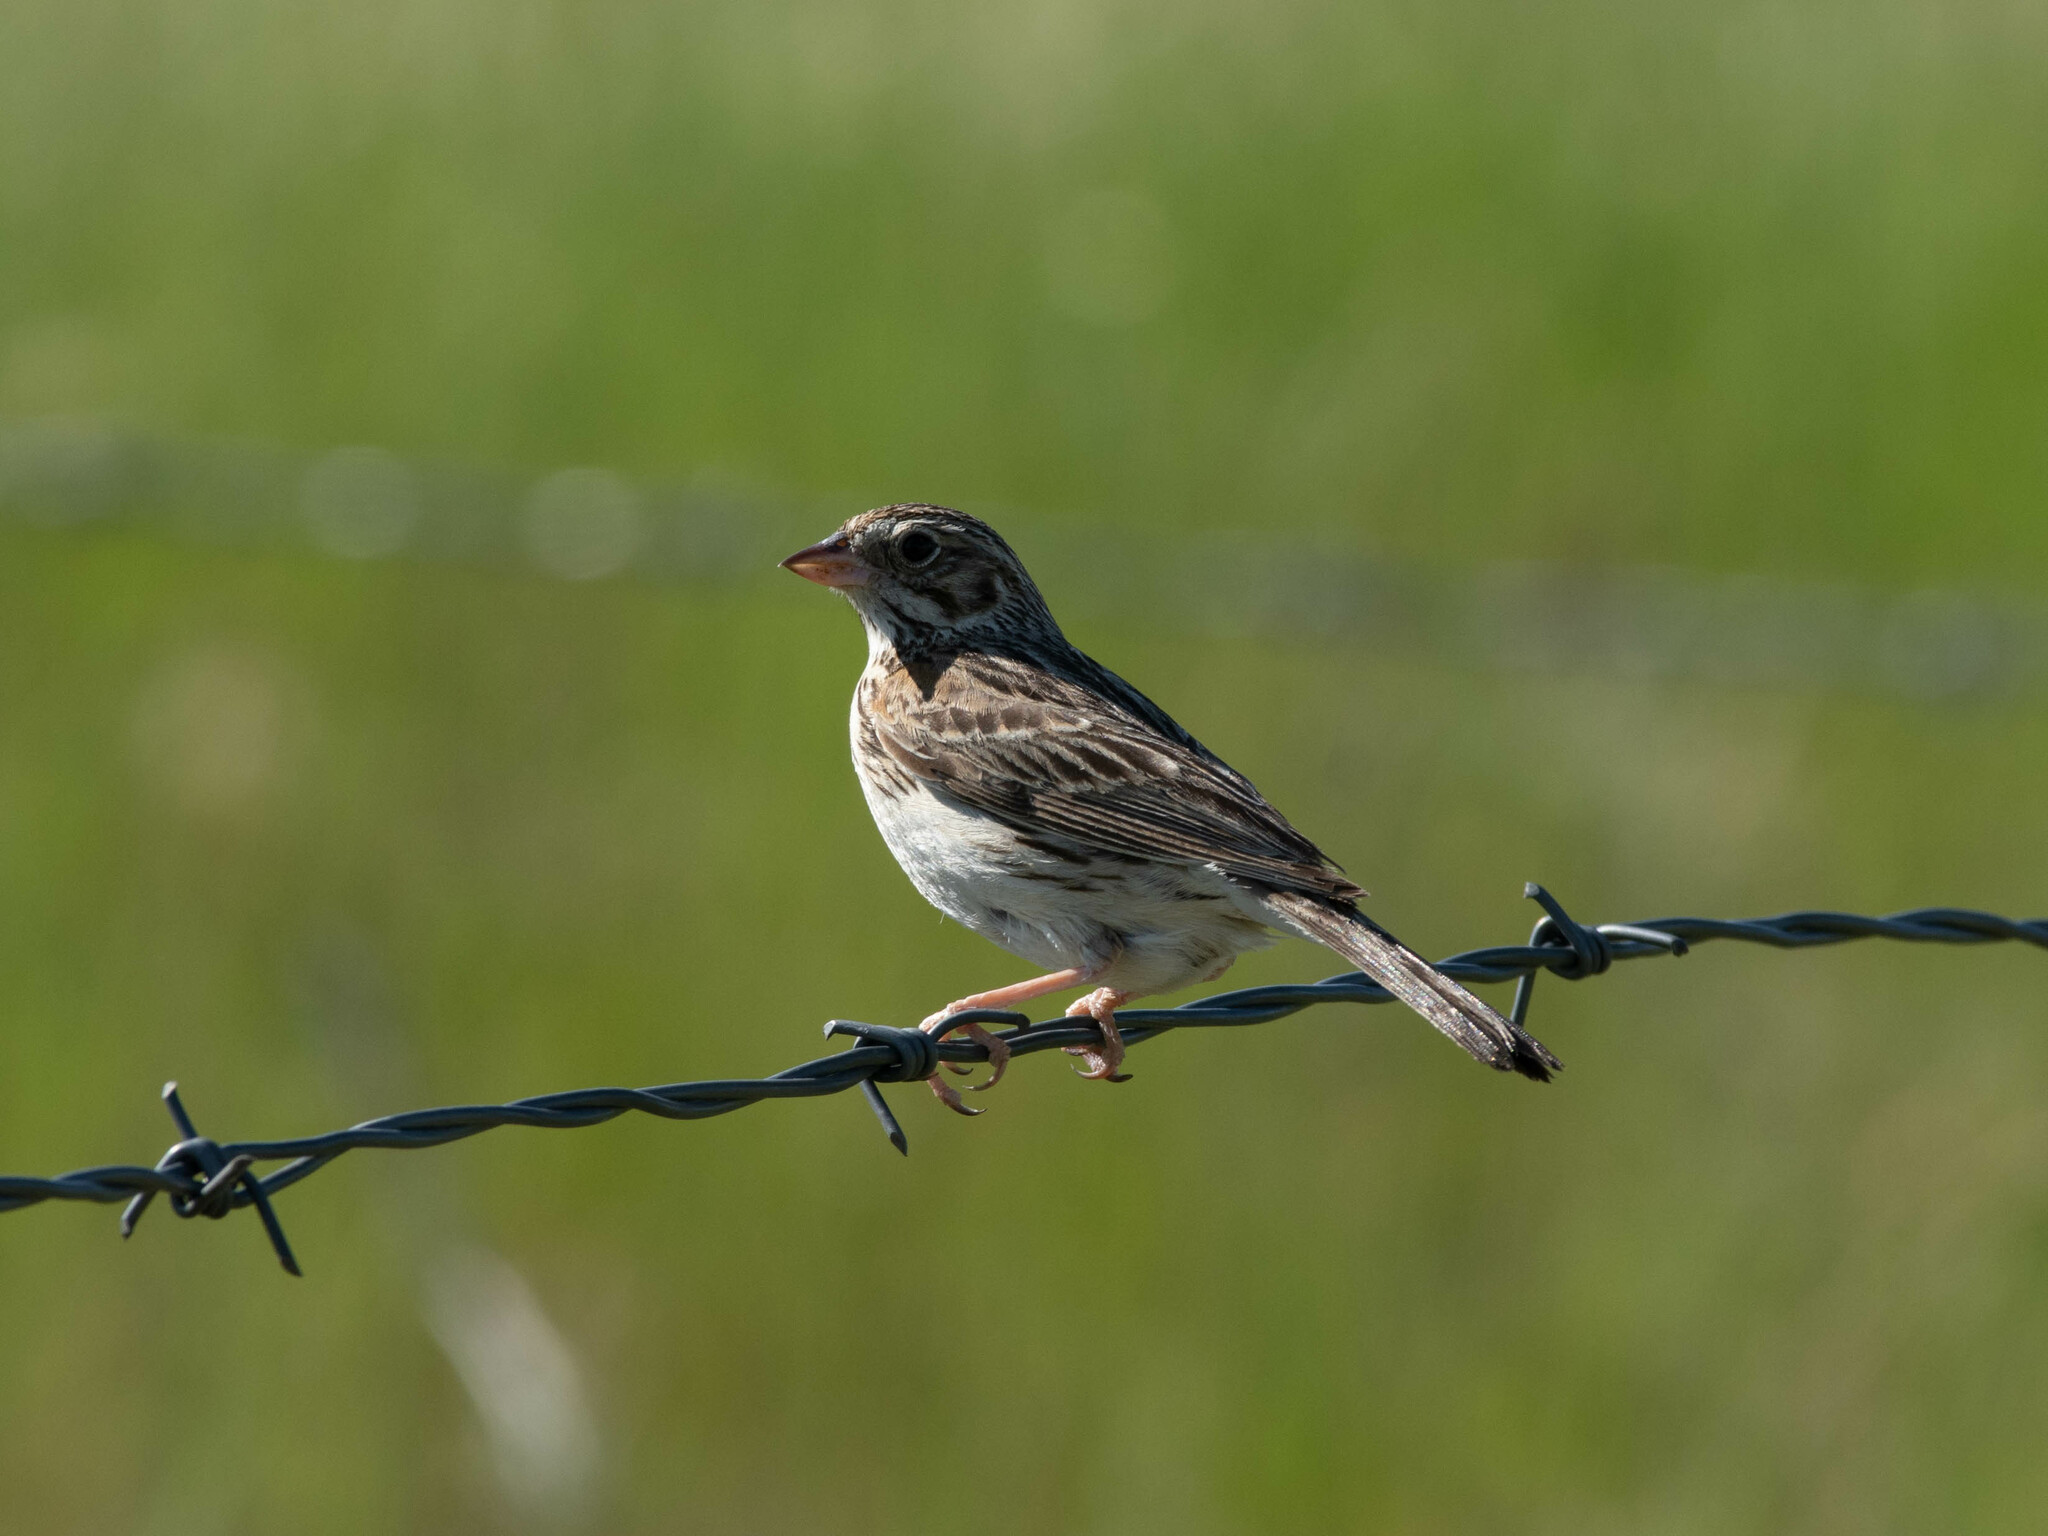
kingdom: Animalia
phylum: Chordata
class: Aves
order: Passeriformes
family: Passerellidae
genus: Pooecetes
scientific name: Pooecetes gramineus
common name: Vesper sparrow
